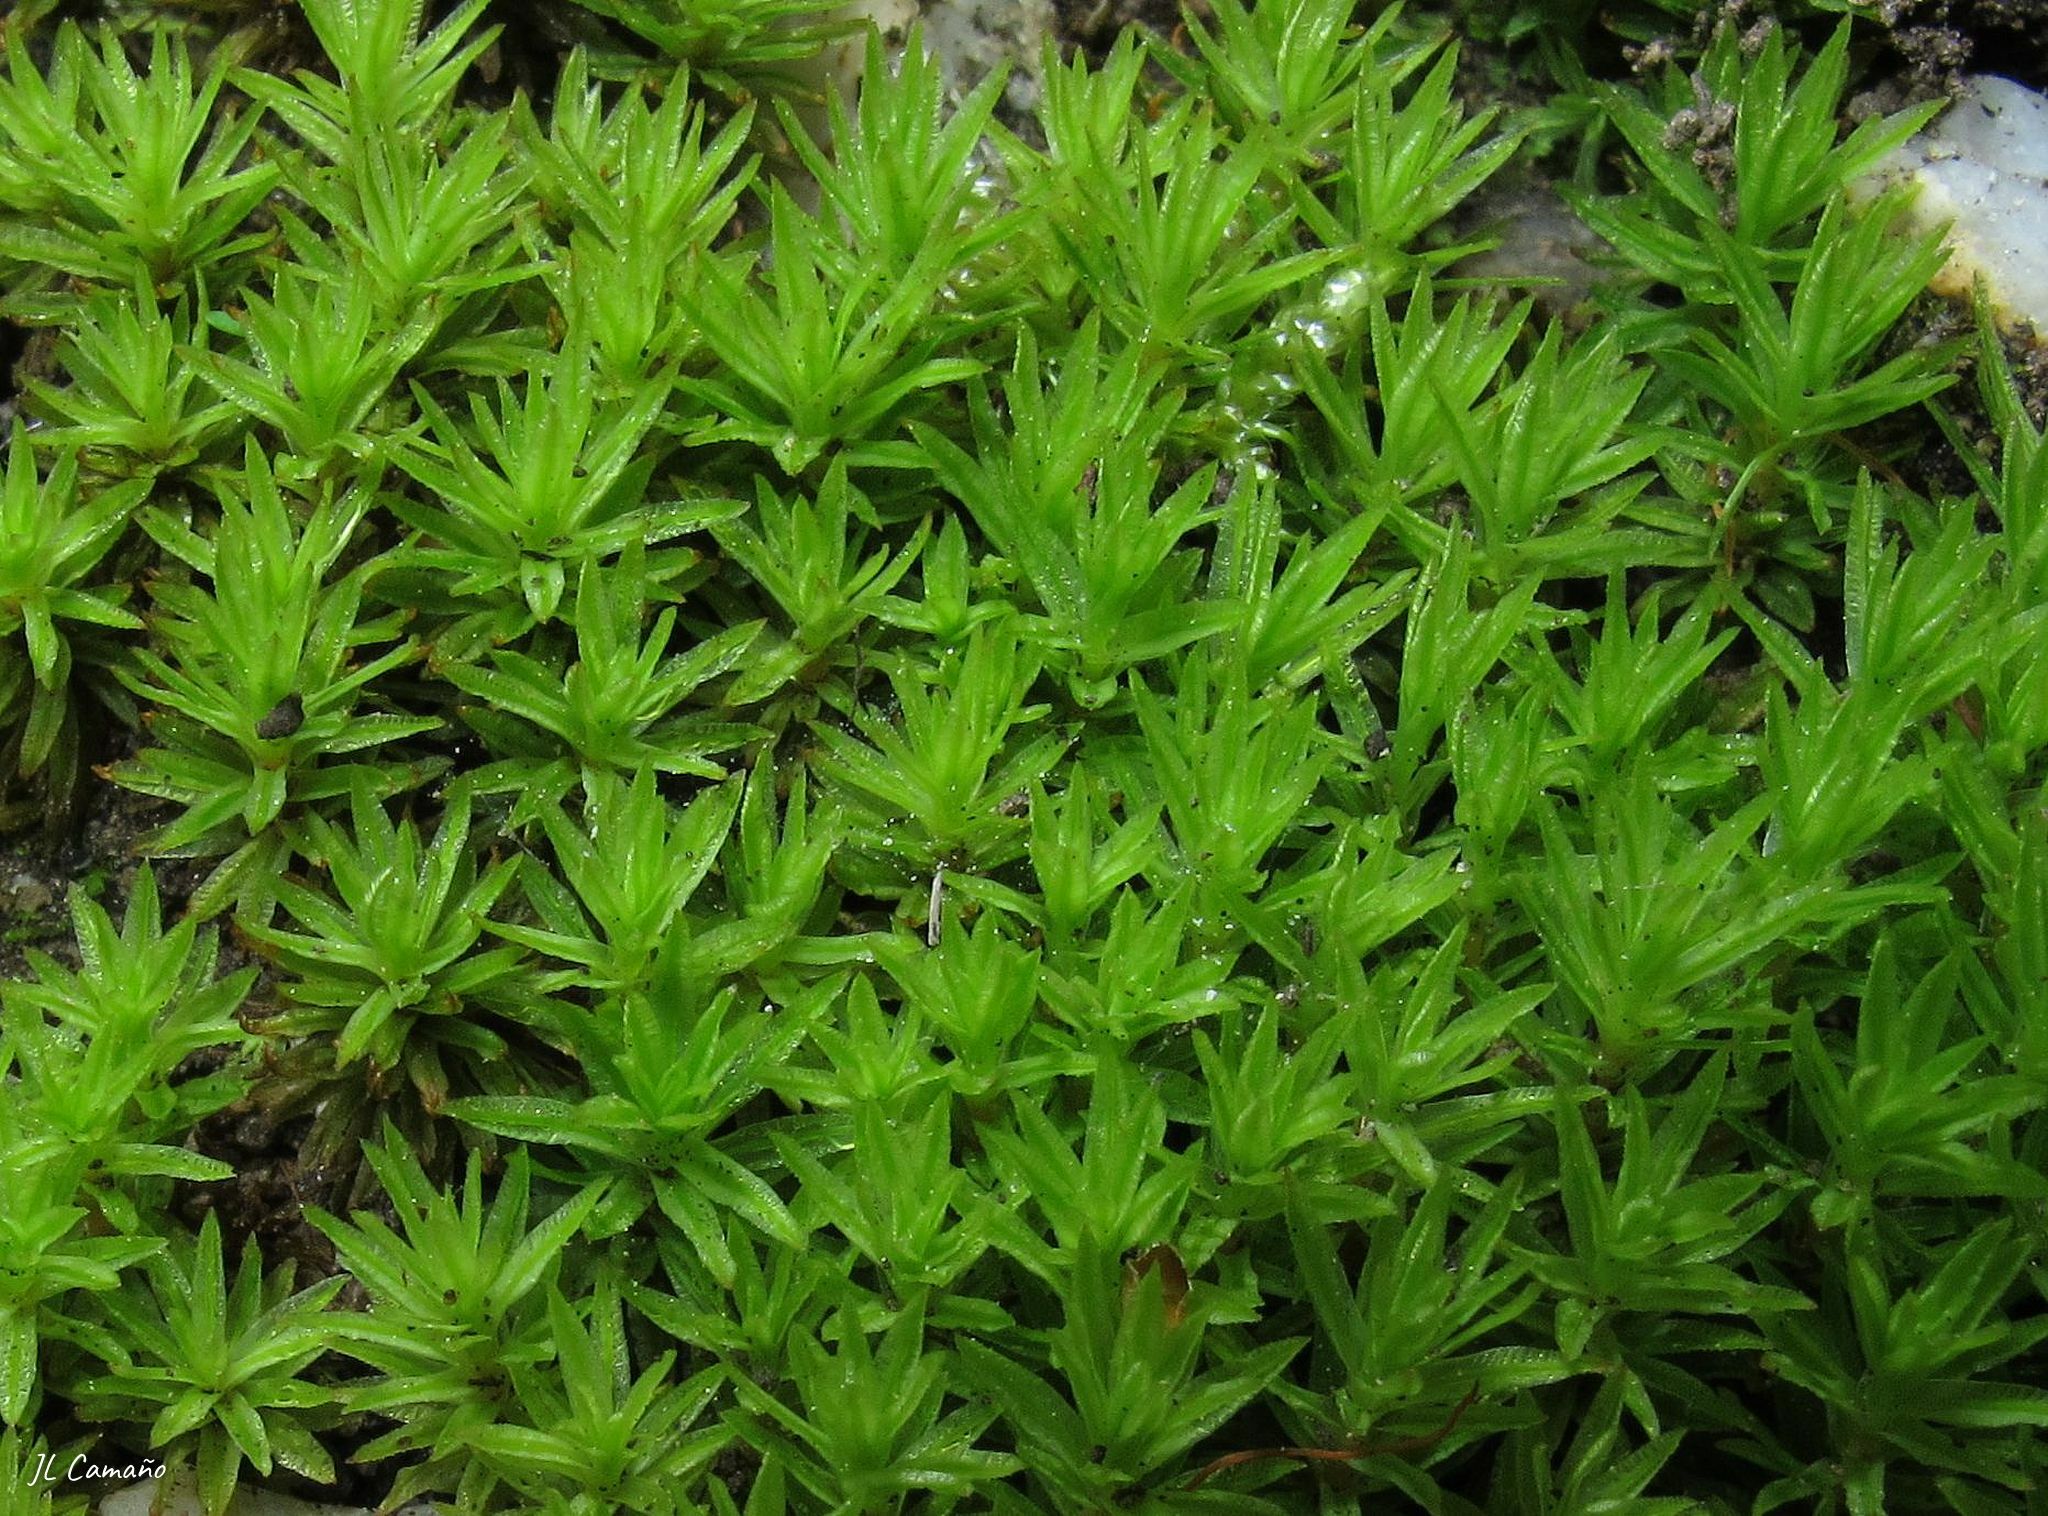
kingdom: Plantae
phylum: Bryophyta
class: Polytrichopsida
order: Polytrichales
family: Polytrichaceae
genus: Atrichum
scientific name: Atrichum angustatum
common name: Lesser smoothcap
